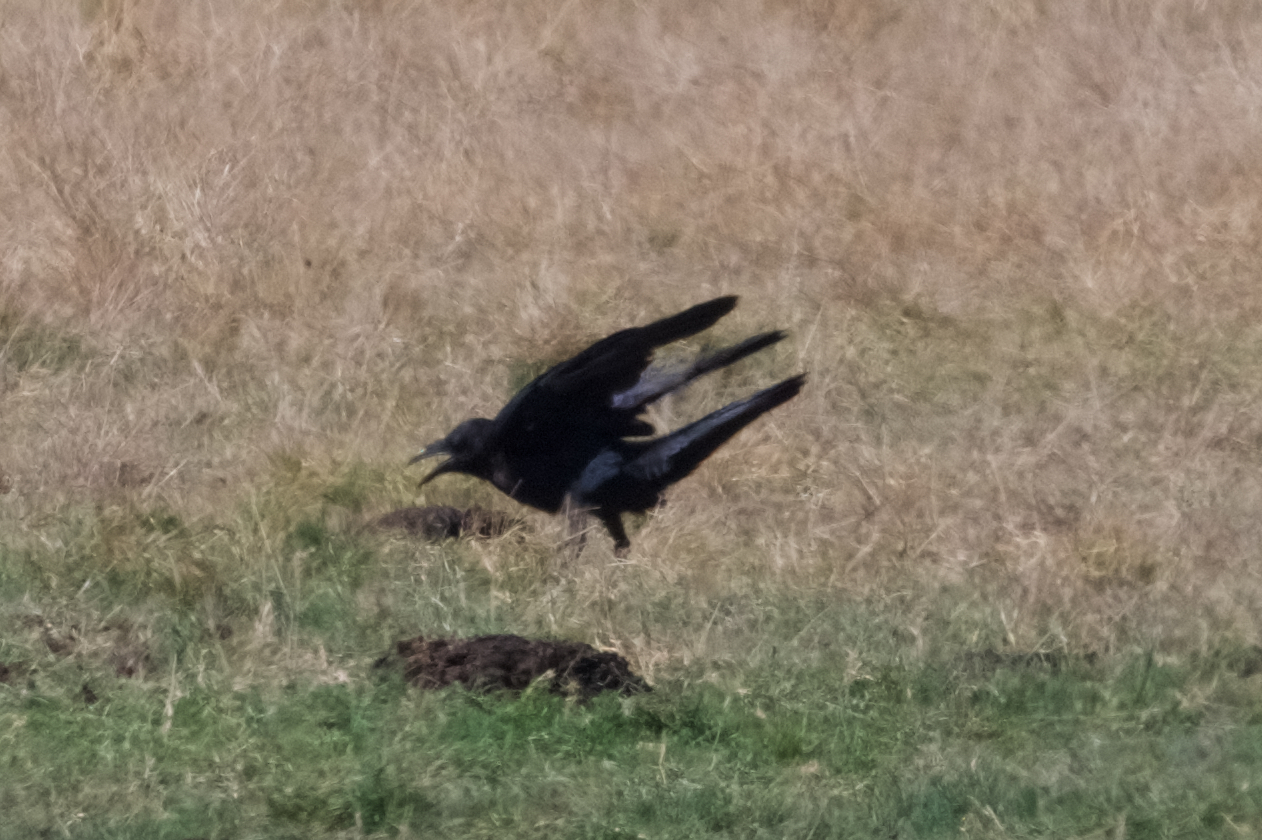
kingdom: Animalia
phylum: Chordata
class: Aves
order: Passeriformes
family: Corvidae
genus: Corvus
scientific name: Corvus corax
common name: Common raven
